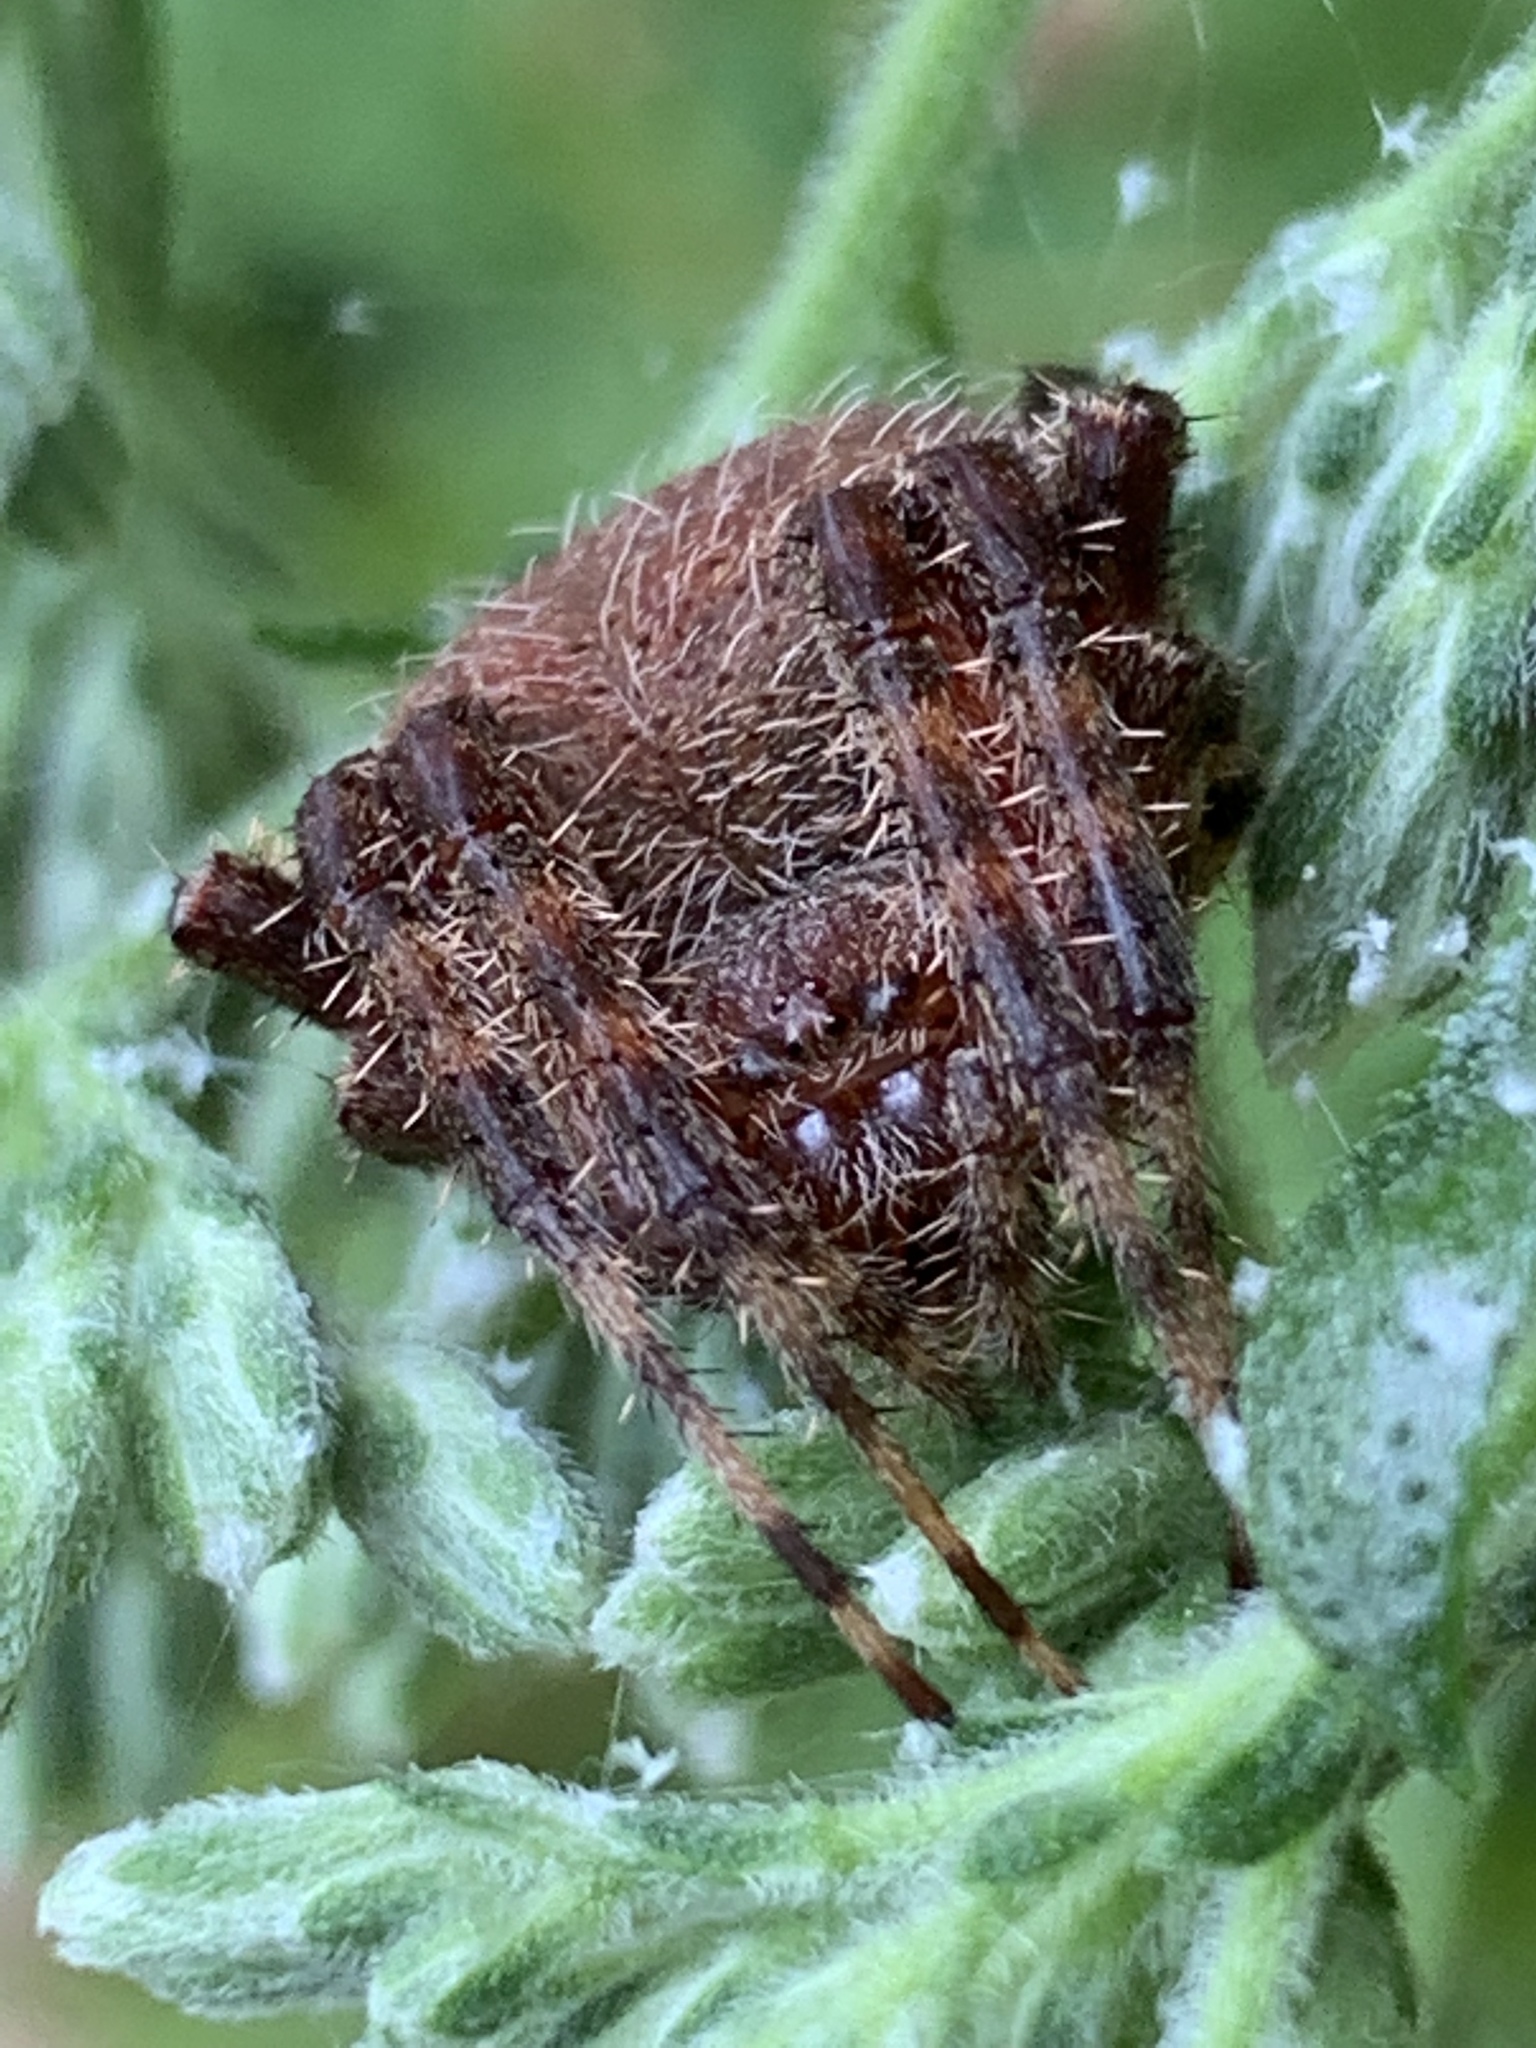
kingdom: Animalia
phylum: Arthropoda
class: Arachnida
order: Araneae
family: Araneidae
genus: Neoscona
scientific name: Neoscona crucifera
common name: Spotted orbweaver
